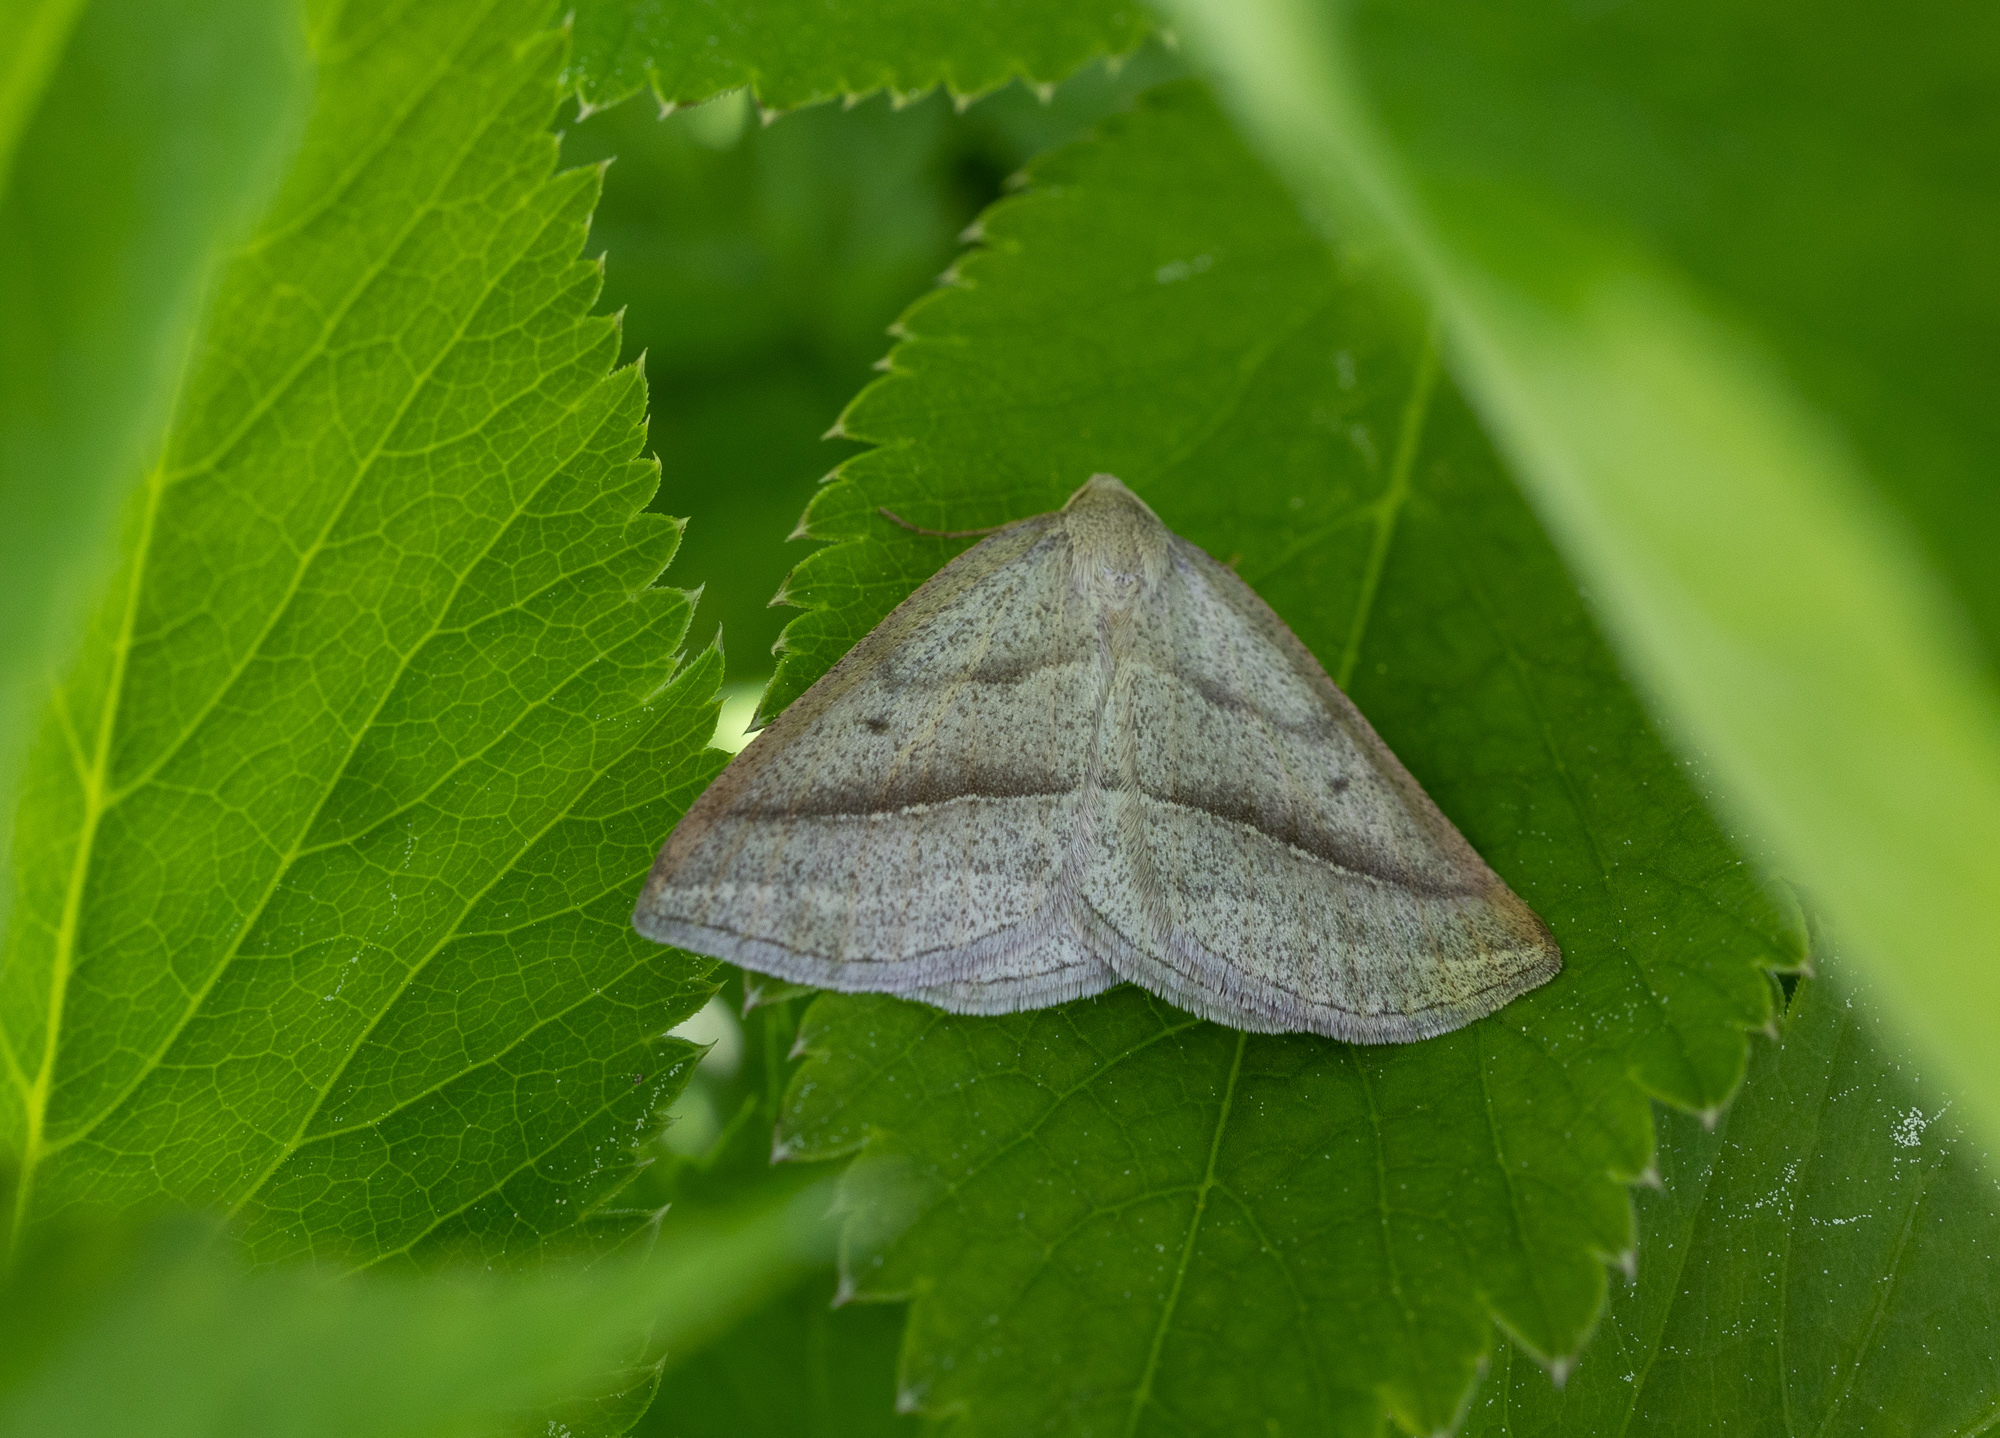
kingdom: Animalia
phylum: Arthropoda
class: Insecta
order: Lepidoptera
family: Pterophoridae
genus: Pterophorus
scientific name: Pterophorus Petrophora chlorosata
